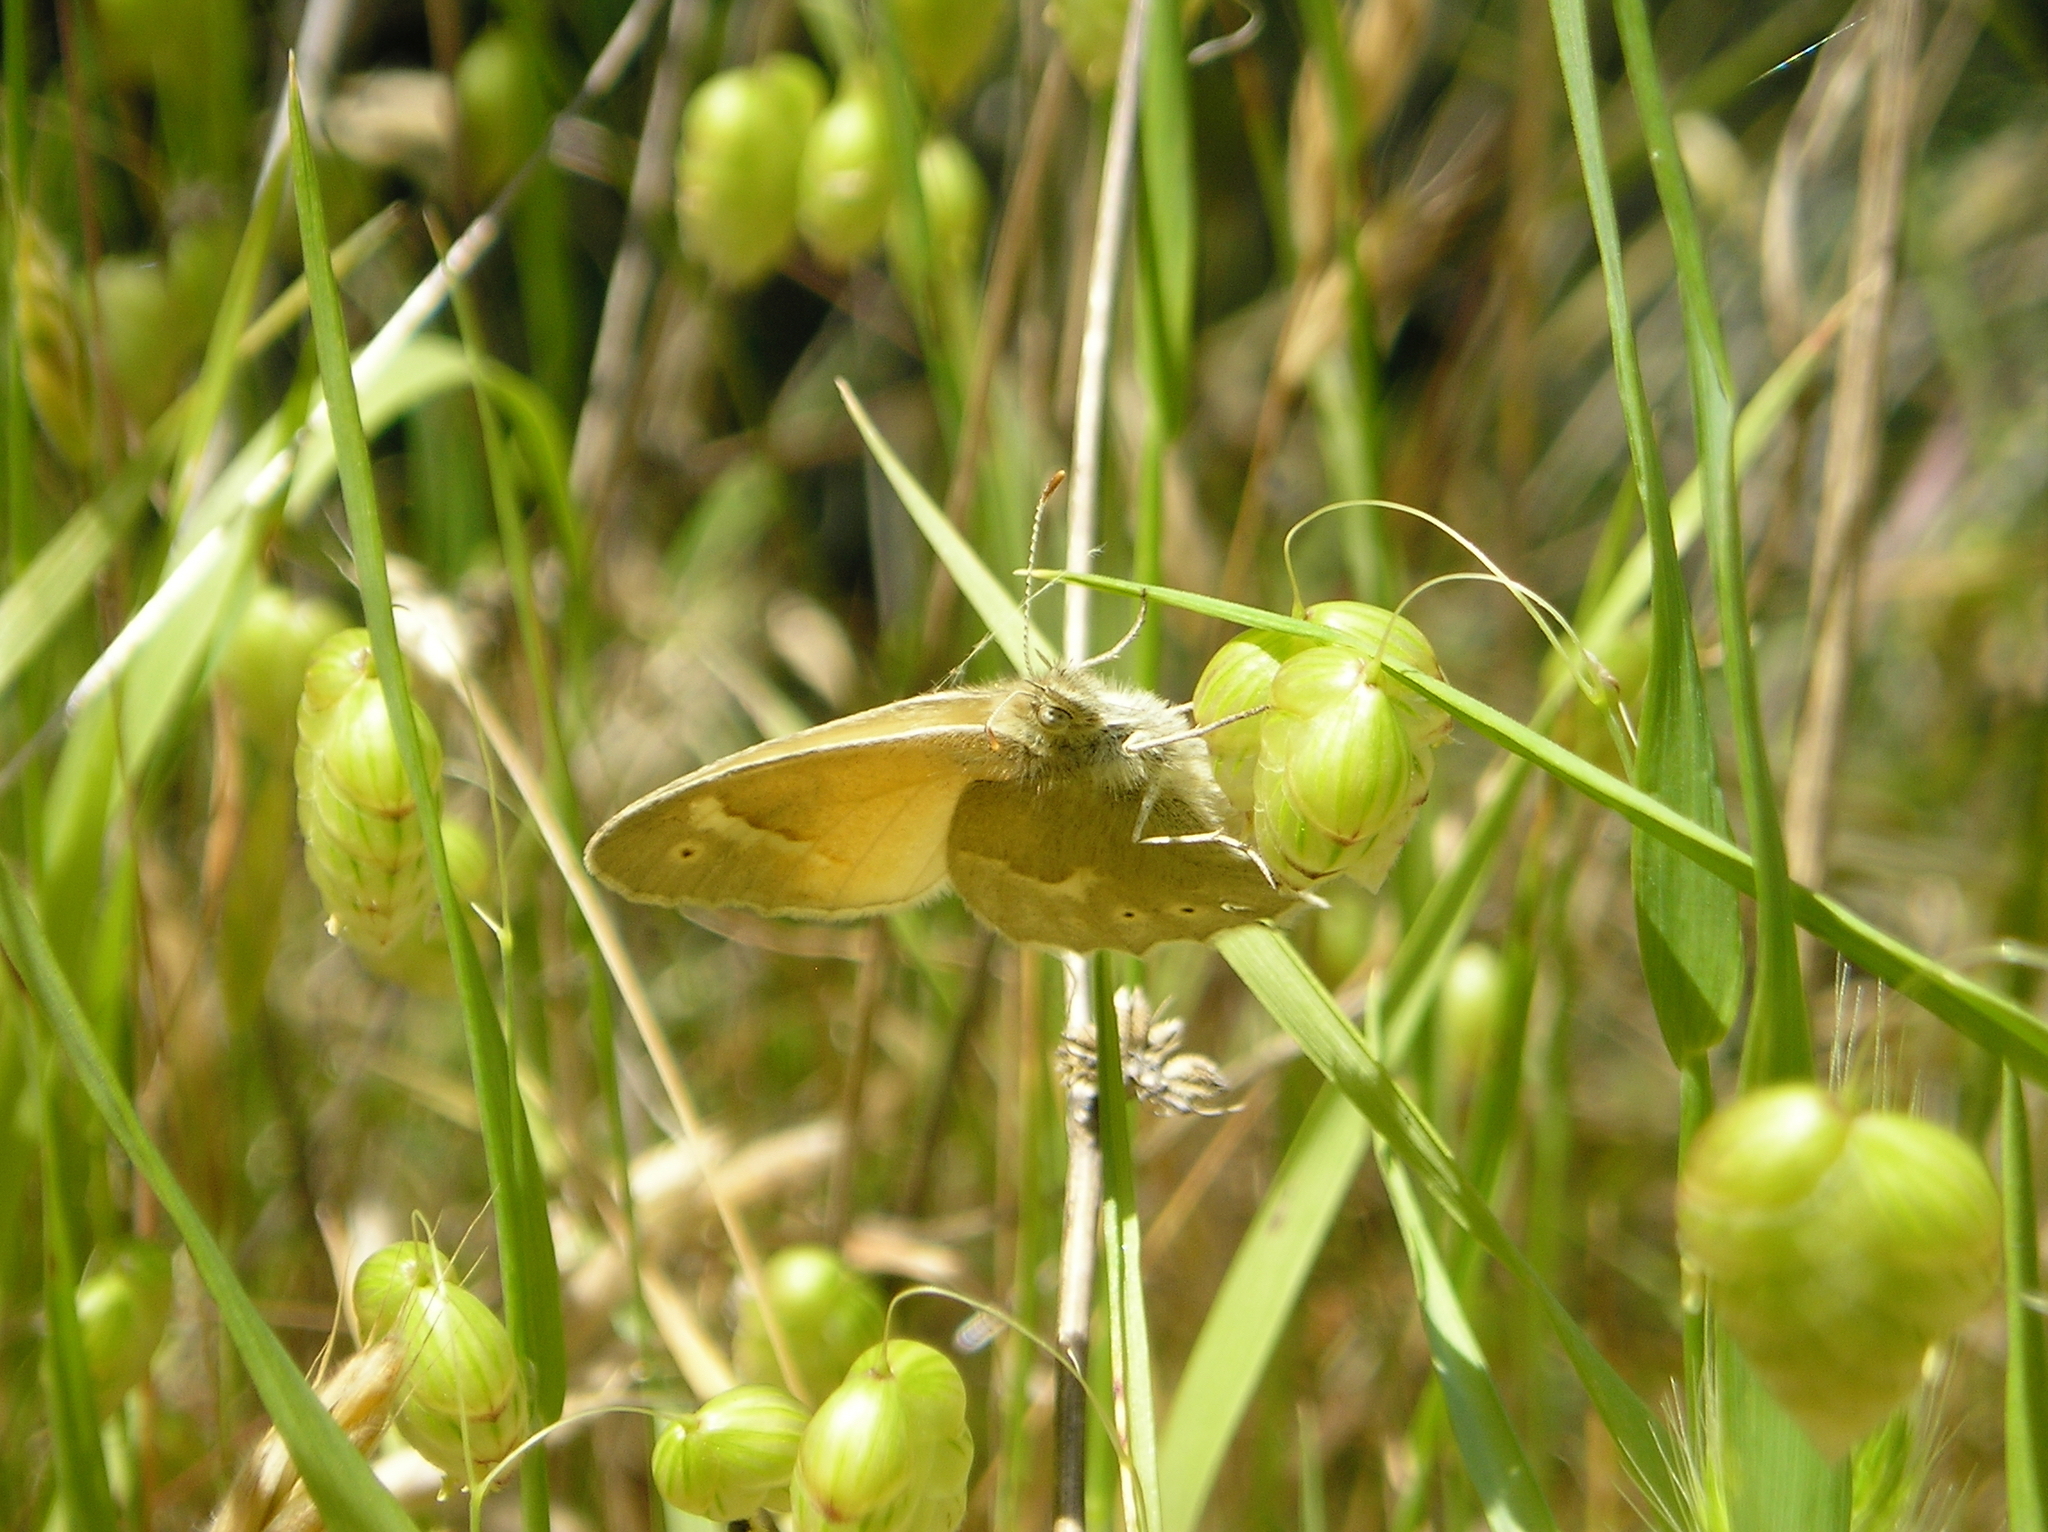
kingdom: Animalia
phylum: Arthropoda
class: Insecta
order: Lepidoptera
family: Nymphalidae
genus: Coenonympha
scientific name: Coenonympha california
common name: Common ringlet
